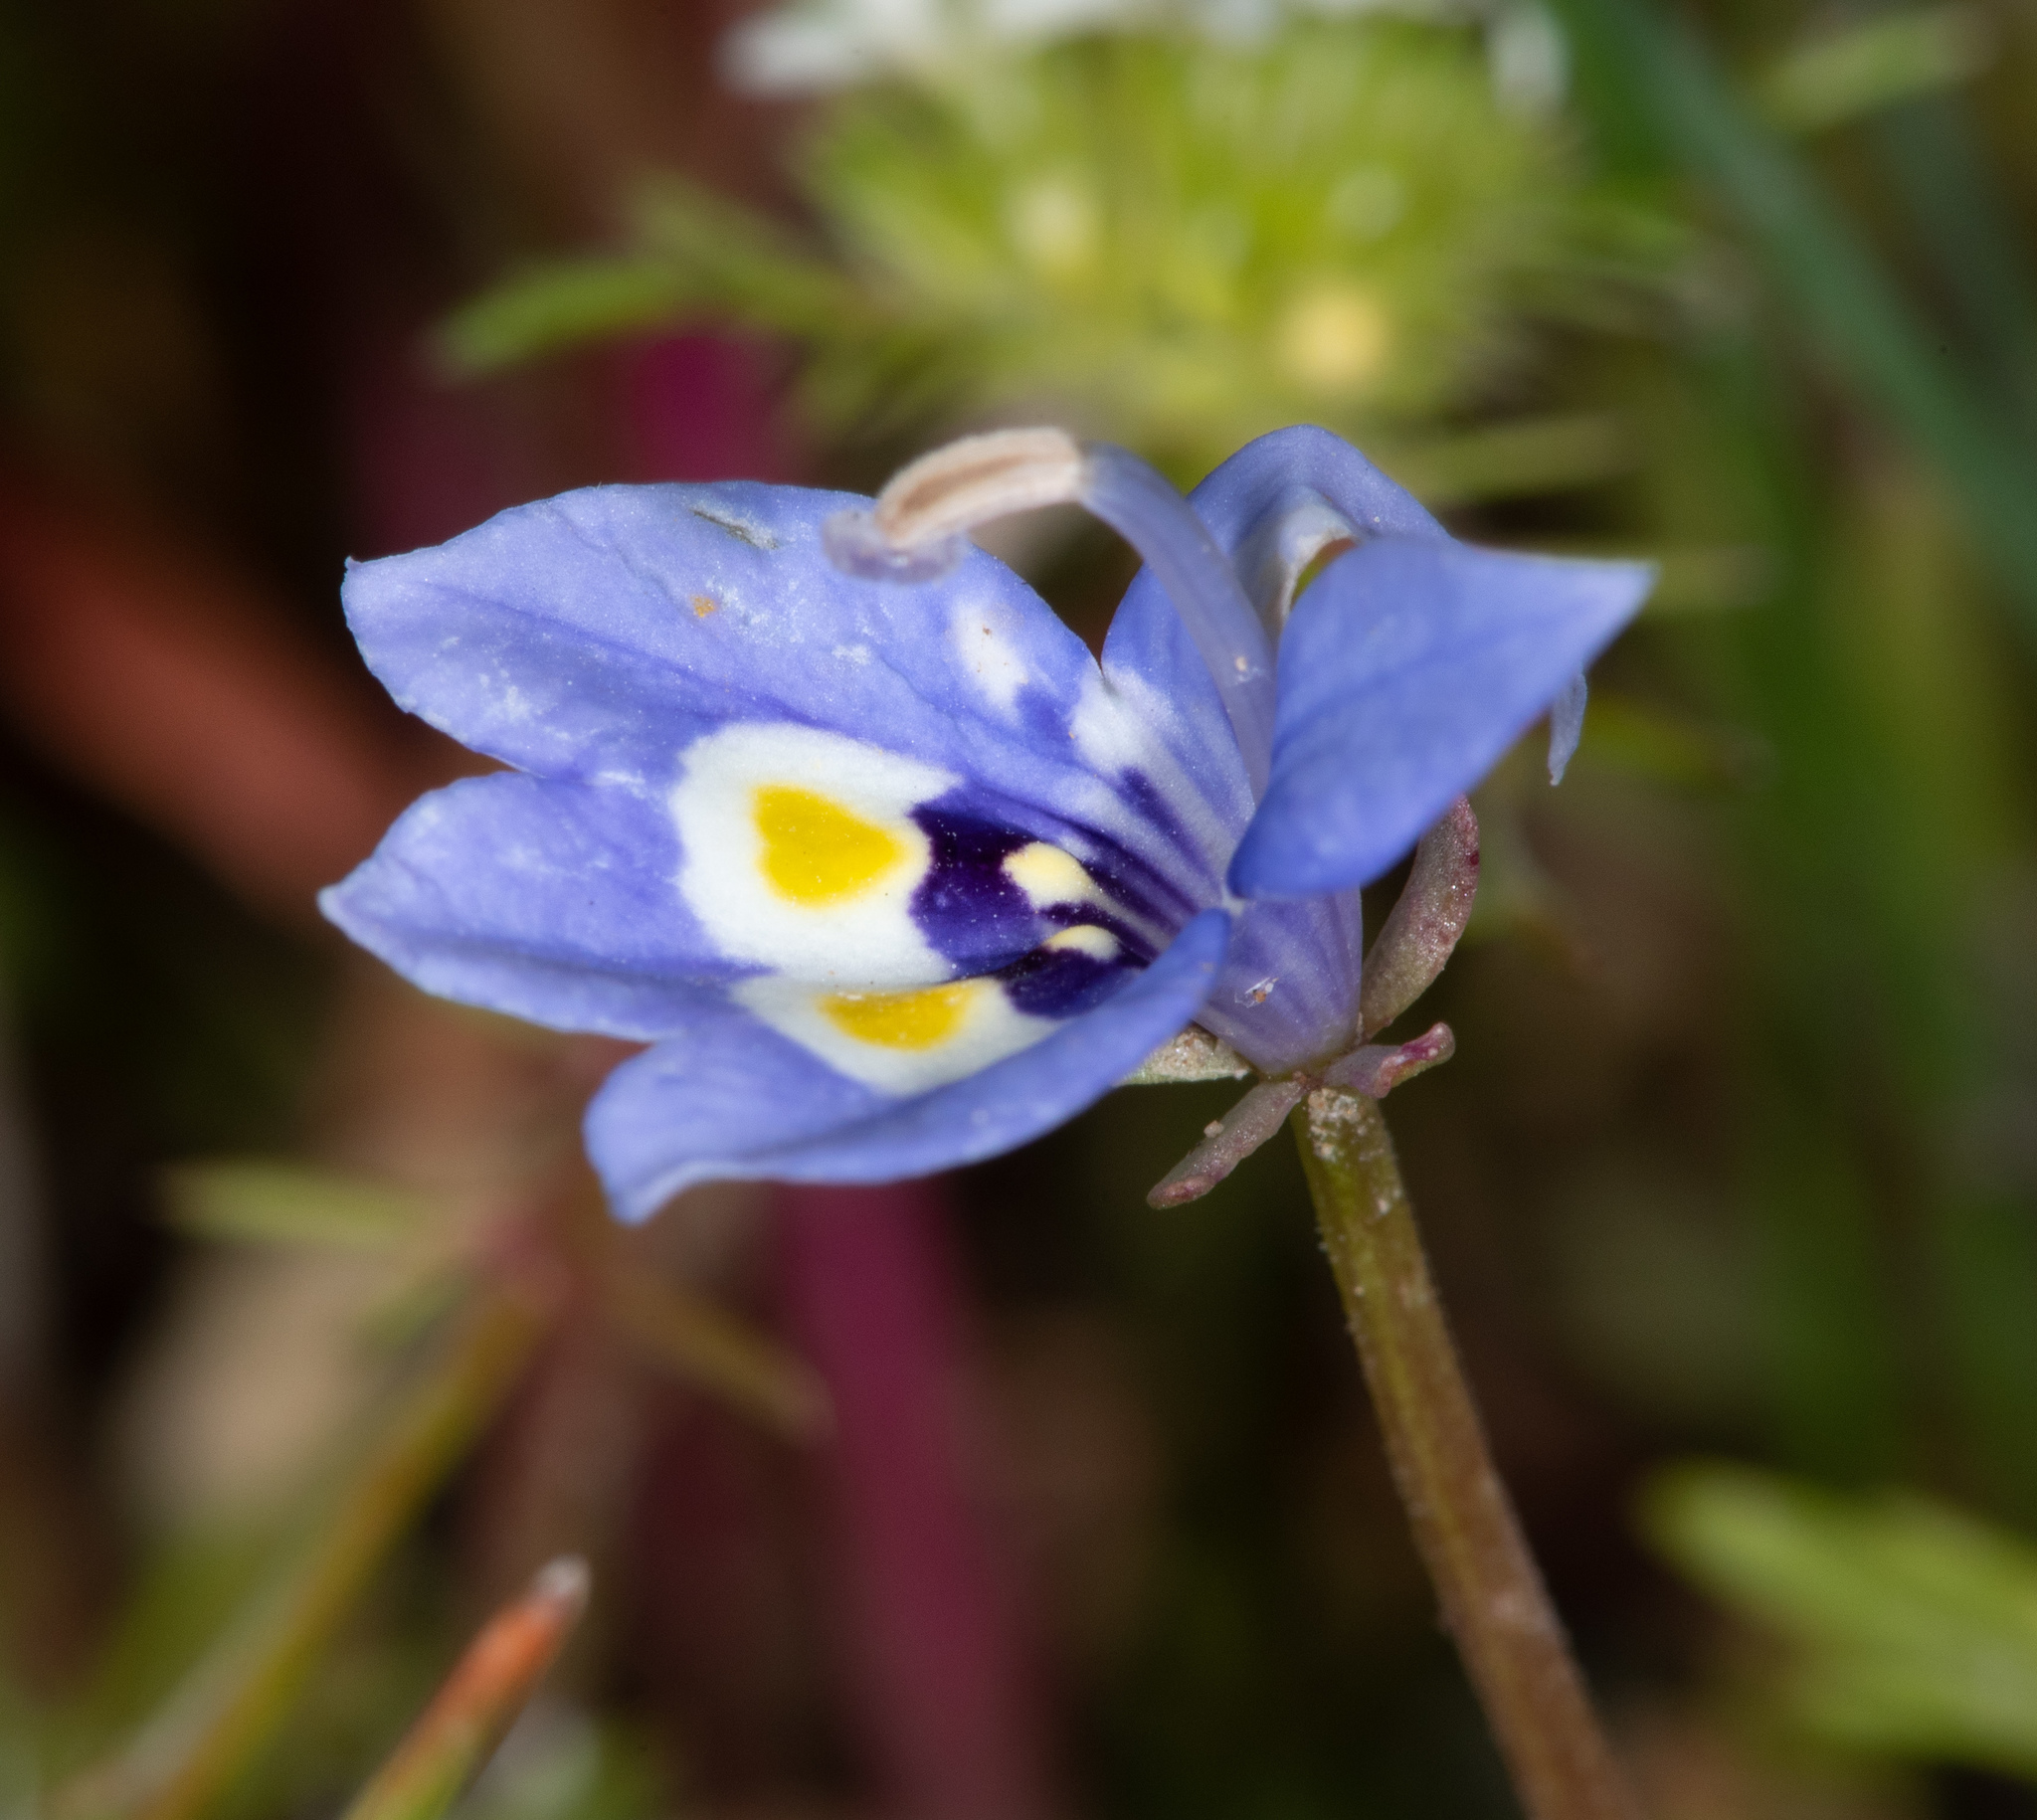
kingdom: Plantae
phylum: Tracheophyta
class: Magnoliopsida
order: Asterales
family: Campanulaceae
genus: Downingia
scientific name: Downingia insignis
